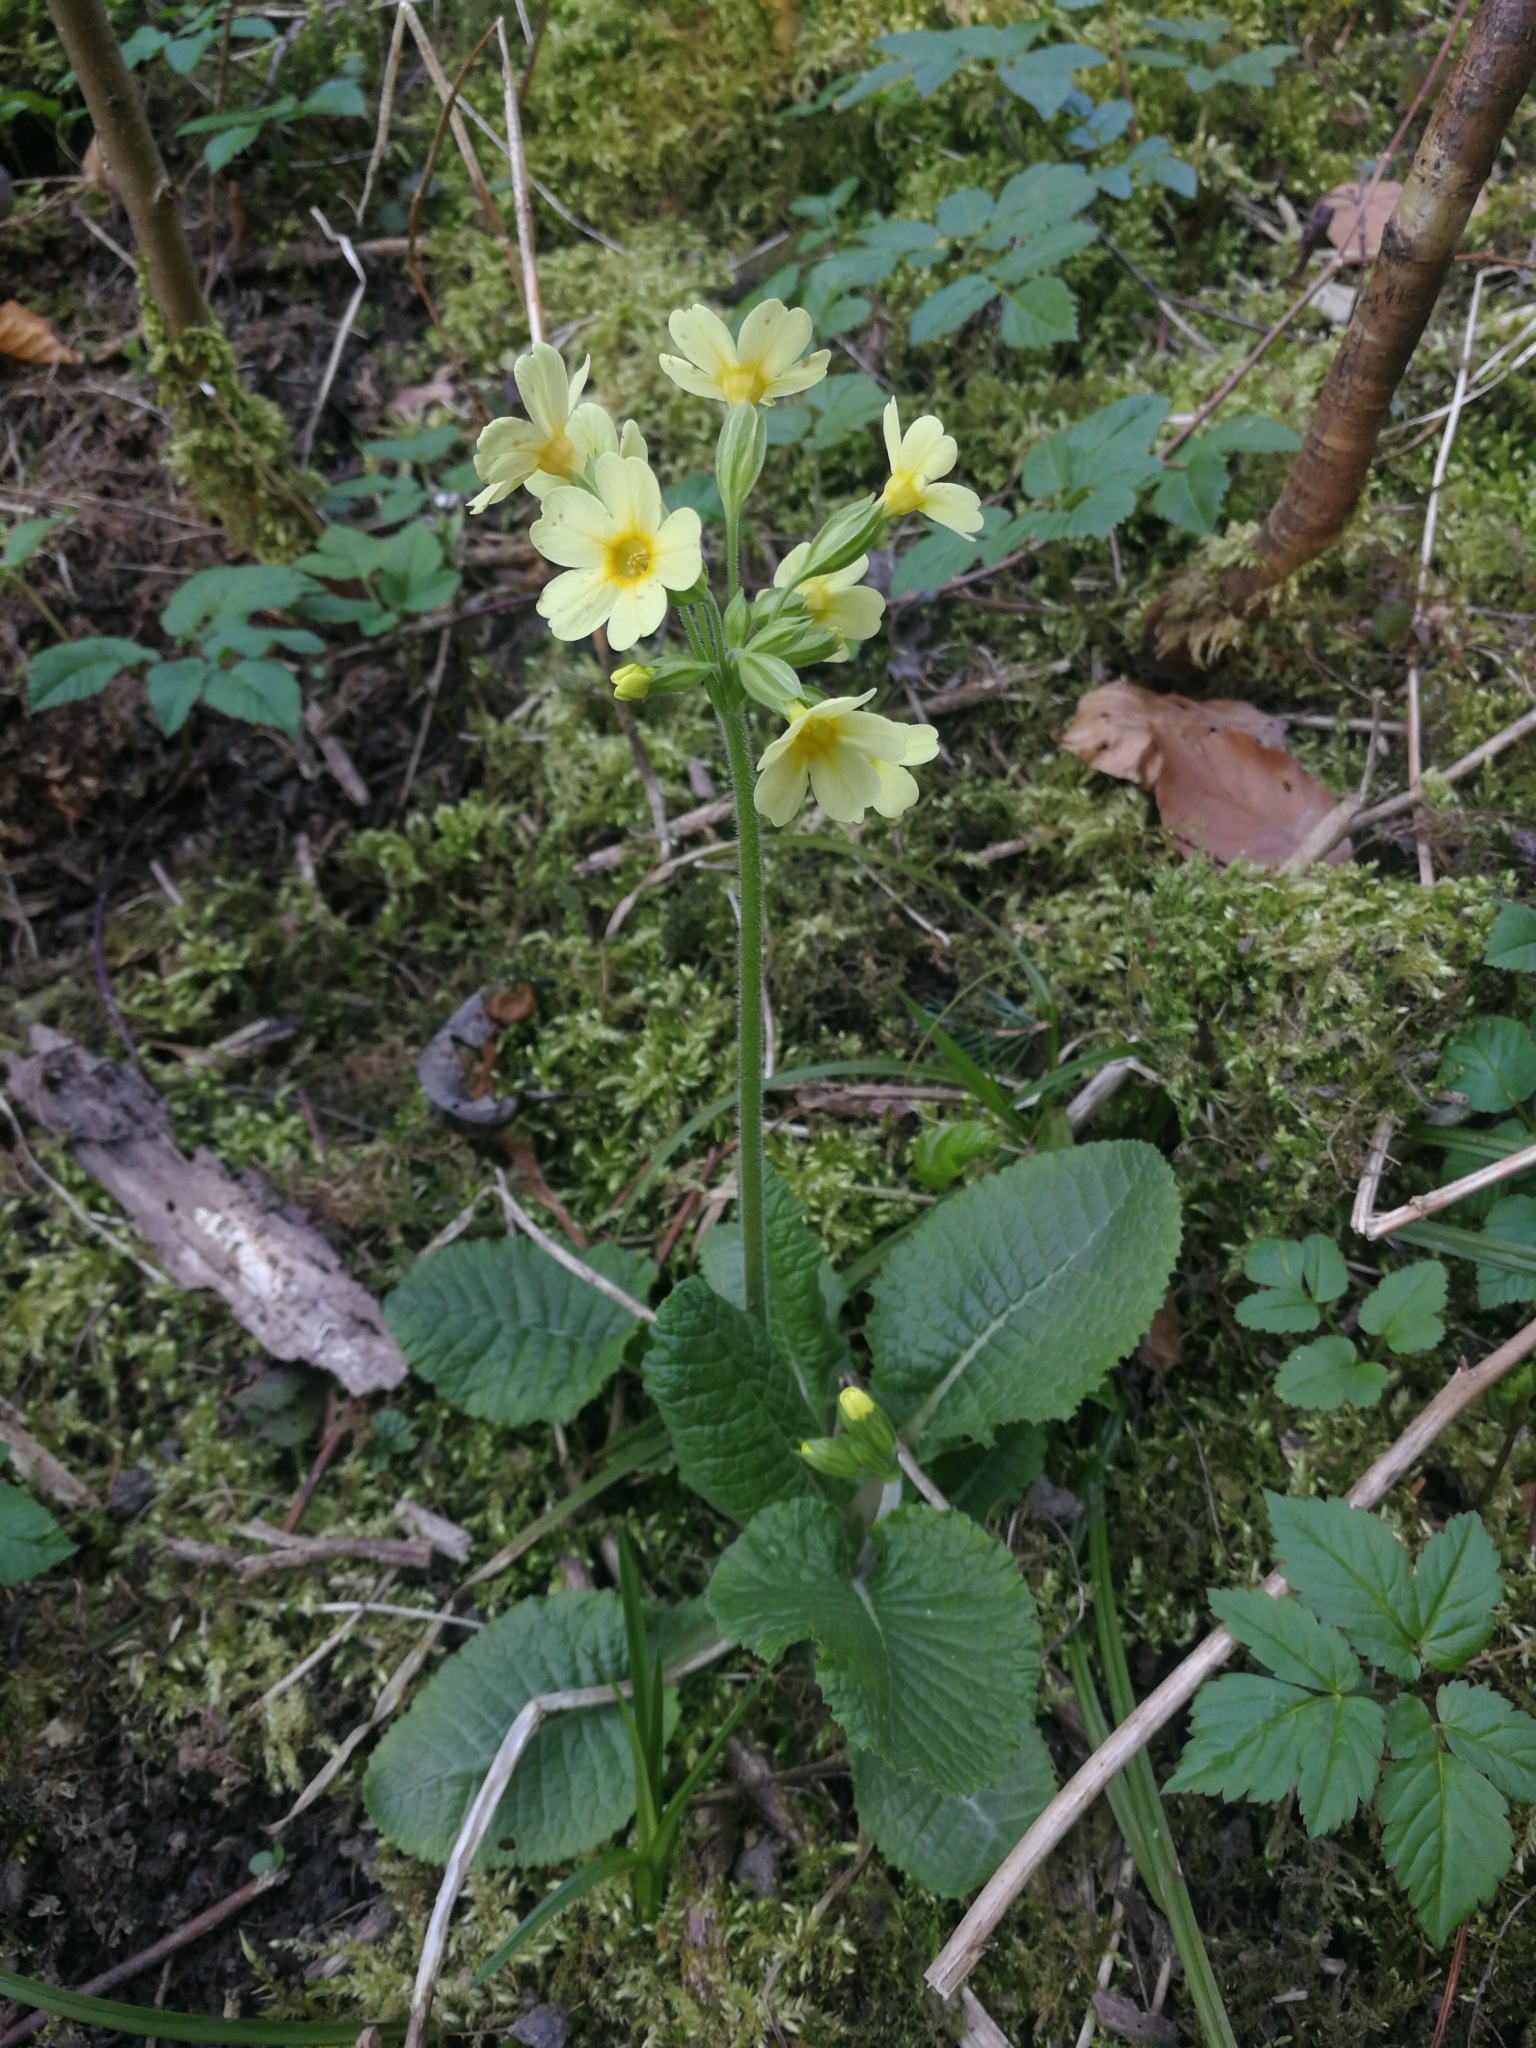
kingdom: Plantae
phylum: Tracheophyta
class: Magnoliopsida
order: Ericales
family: Primulaceae
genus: Primula
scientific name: Primula elatior
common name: Oxlip
